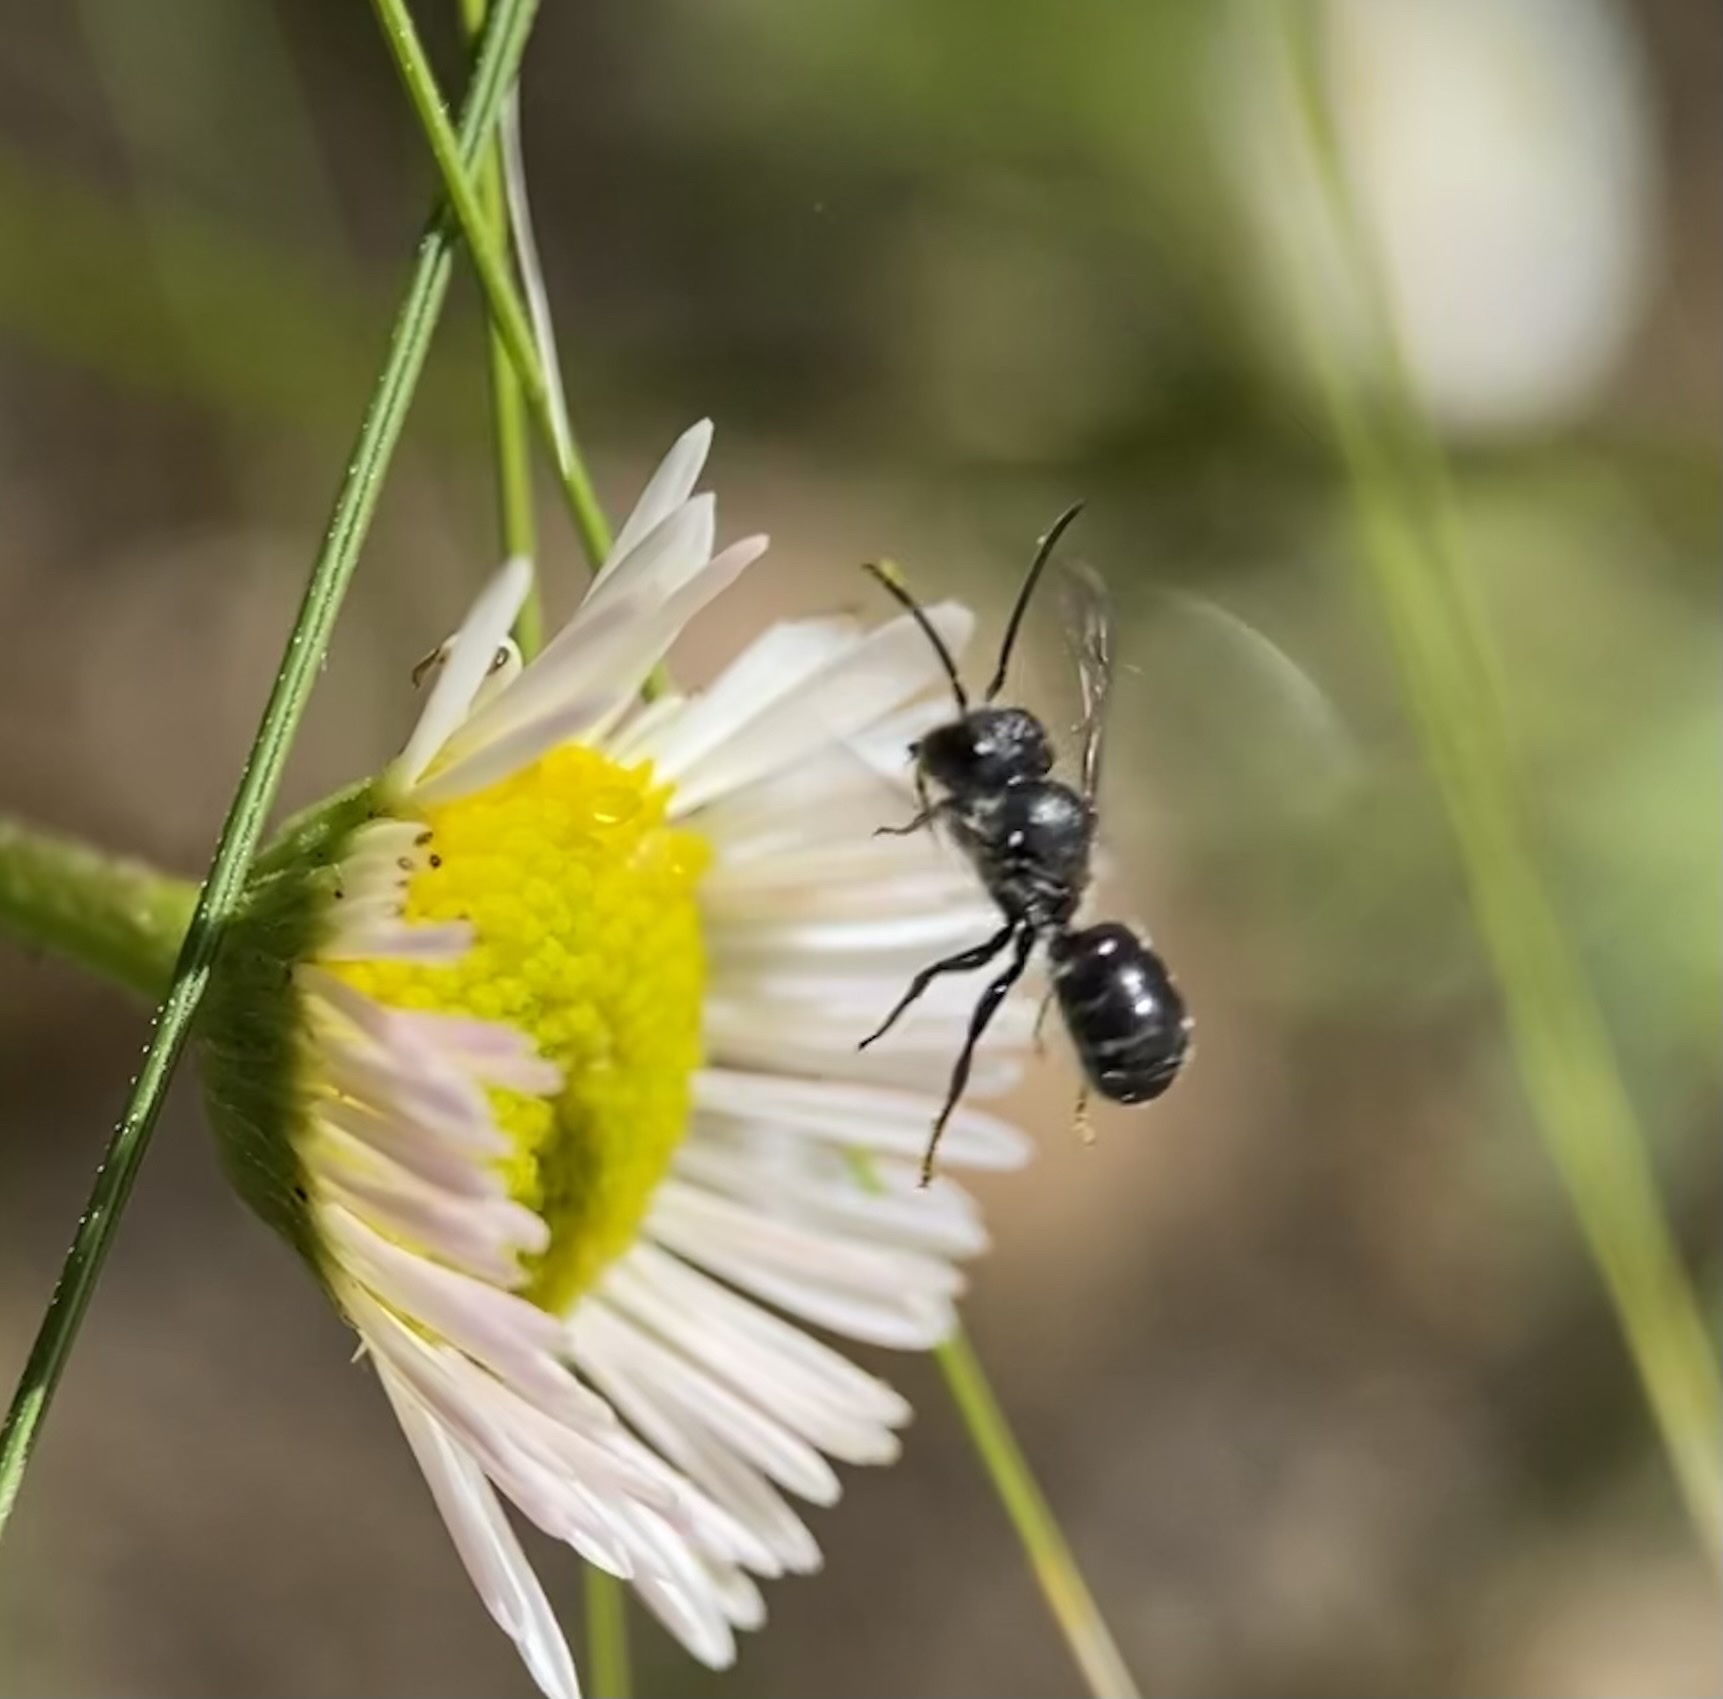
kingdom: Animalia
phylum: Arthropoda
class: Insecta
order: Hymenoptera
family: Megachilidae
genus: Protosmia
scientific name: Protosmia rubifloris
